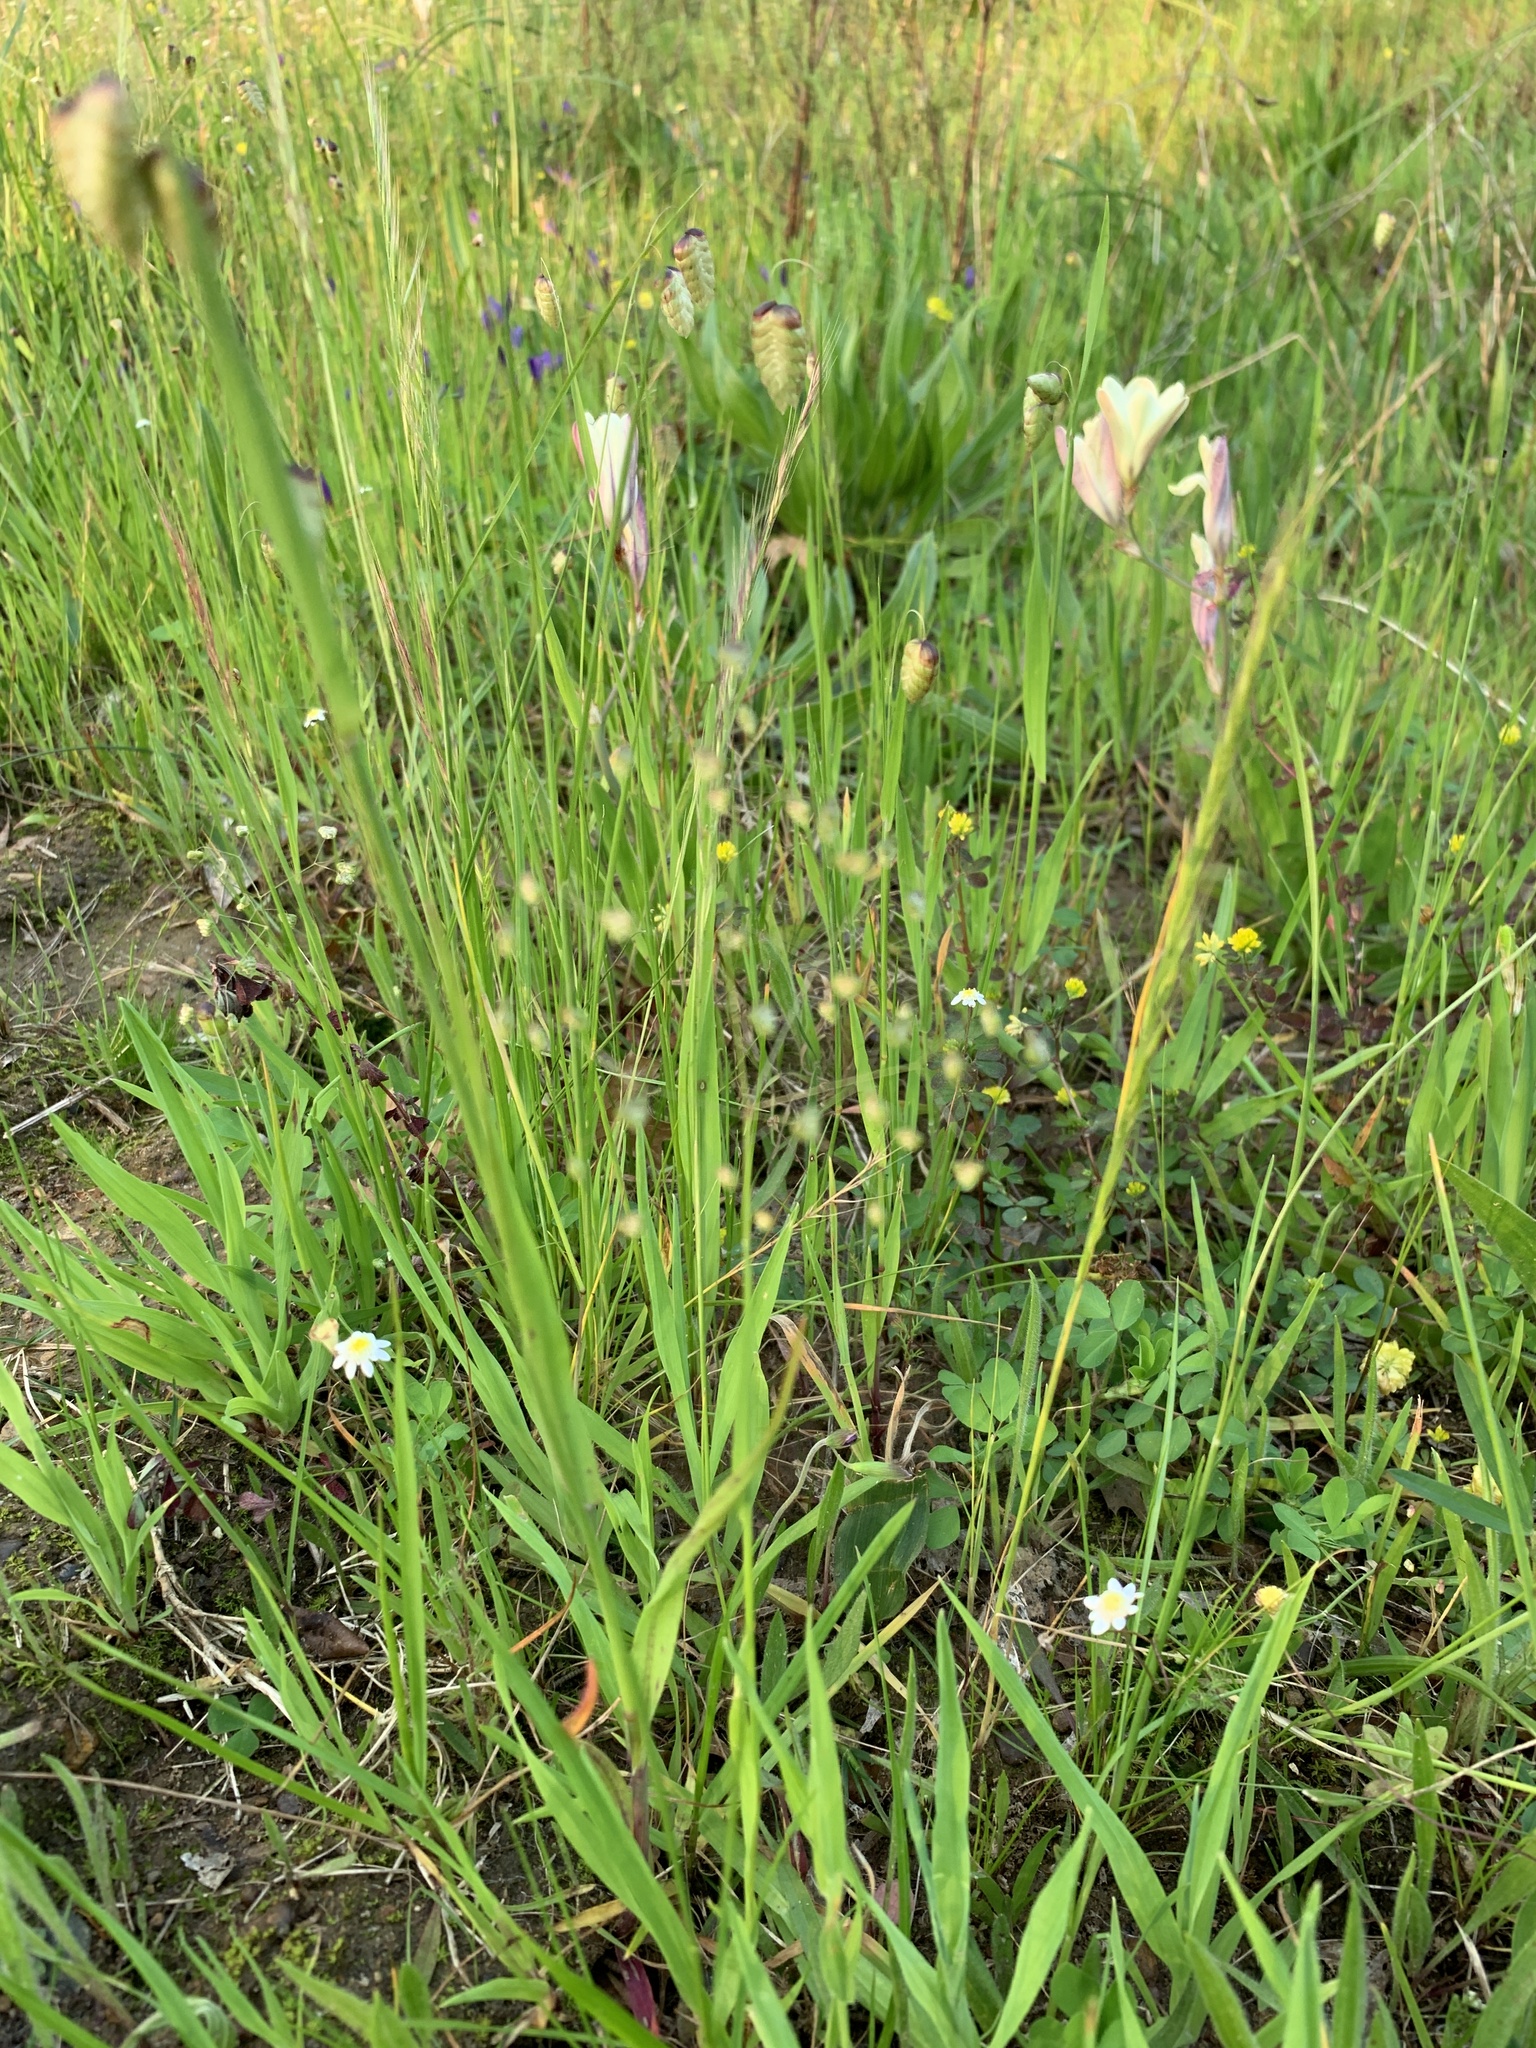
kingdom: Plantae
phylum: Tracheophyta
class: Liliopsida
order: Poales
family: Poaceae
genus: Briza
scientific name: Briza minor
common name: Lesser quaking-grass
